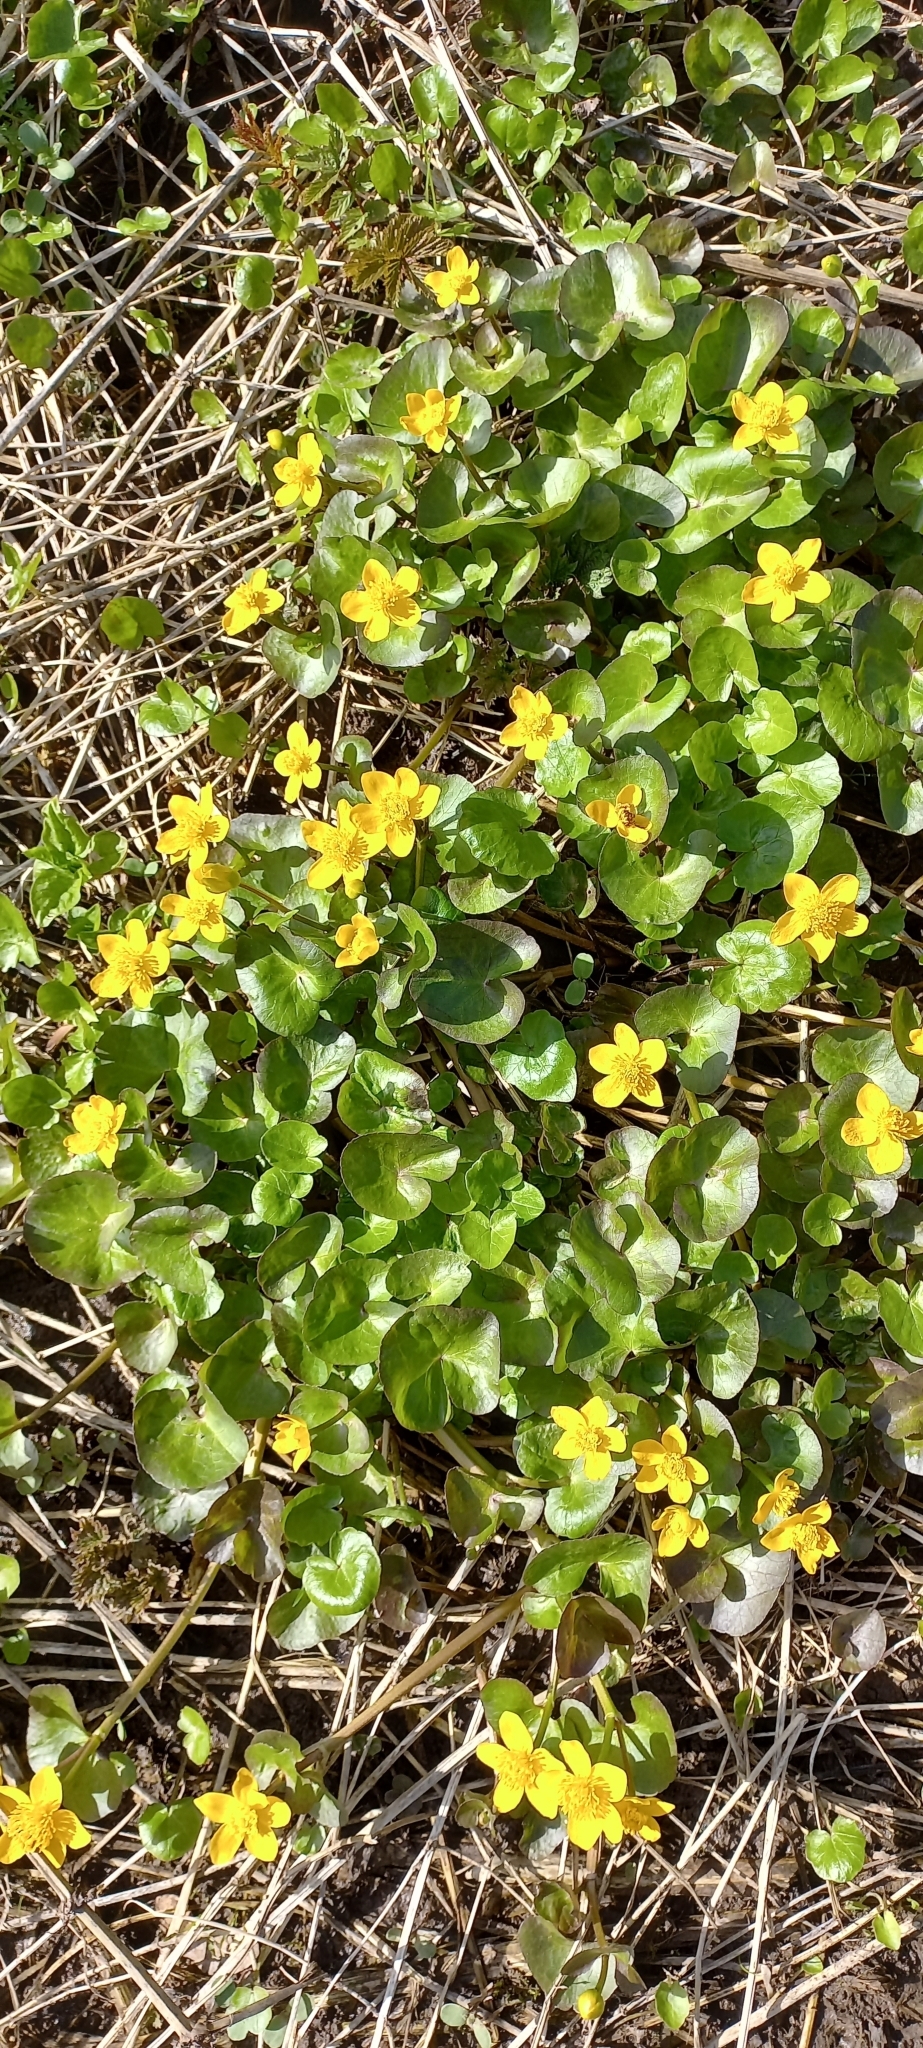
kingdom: Plantae
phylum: Tracheophyta
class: Magnoliopsida
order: Ranunculales
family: Ranunculaceae
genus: Caltha
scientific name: Caltha palustris
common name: Marsh marigold
